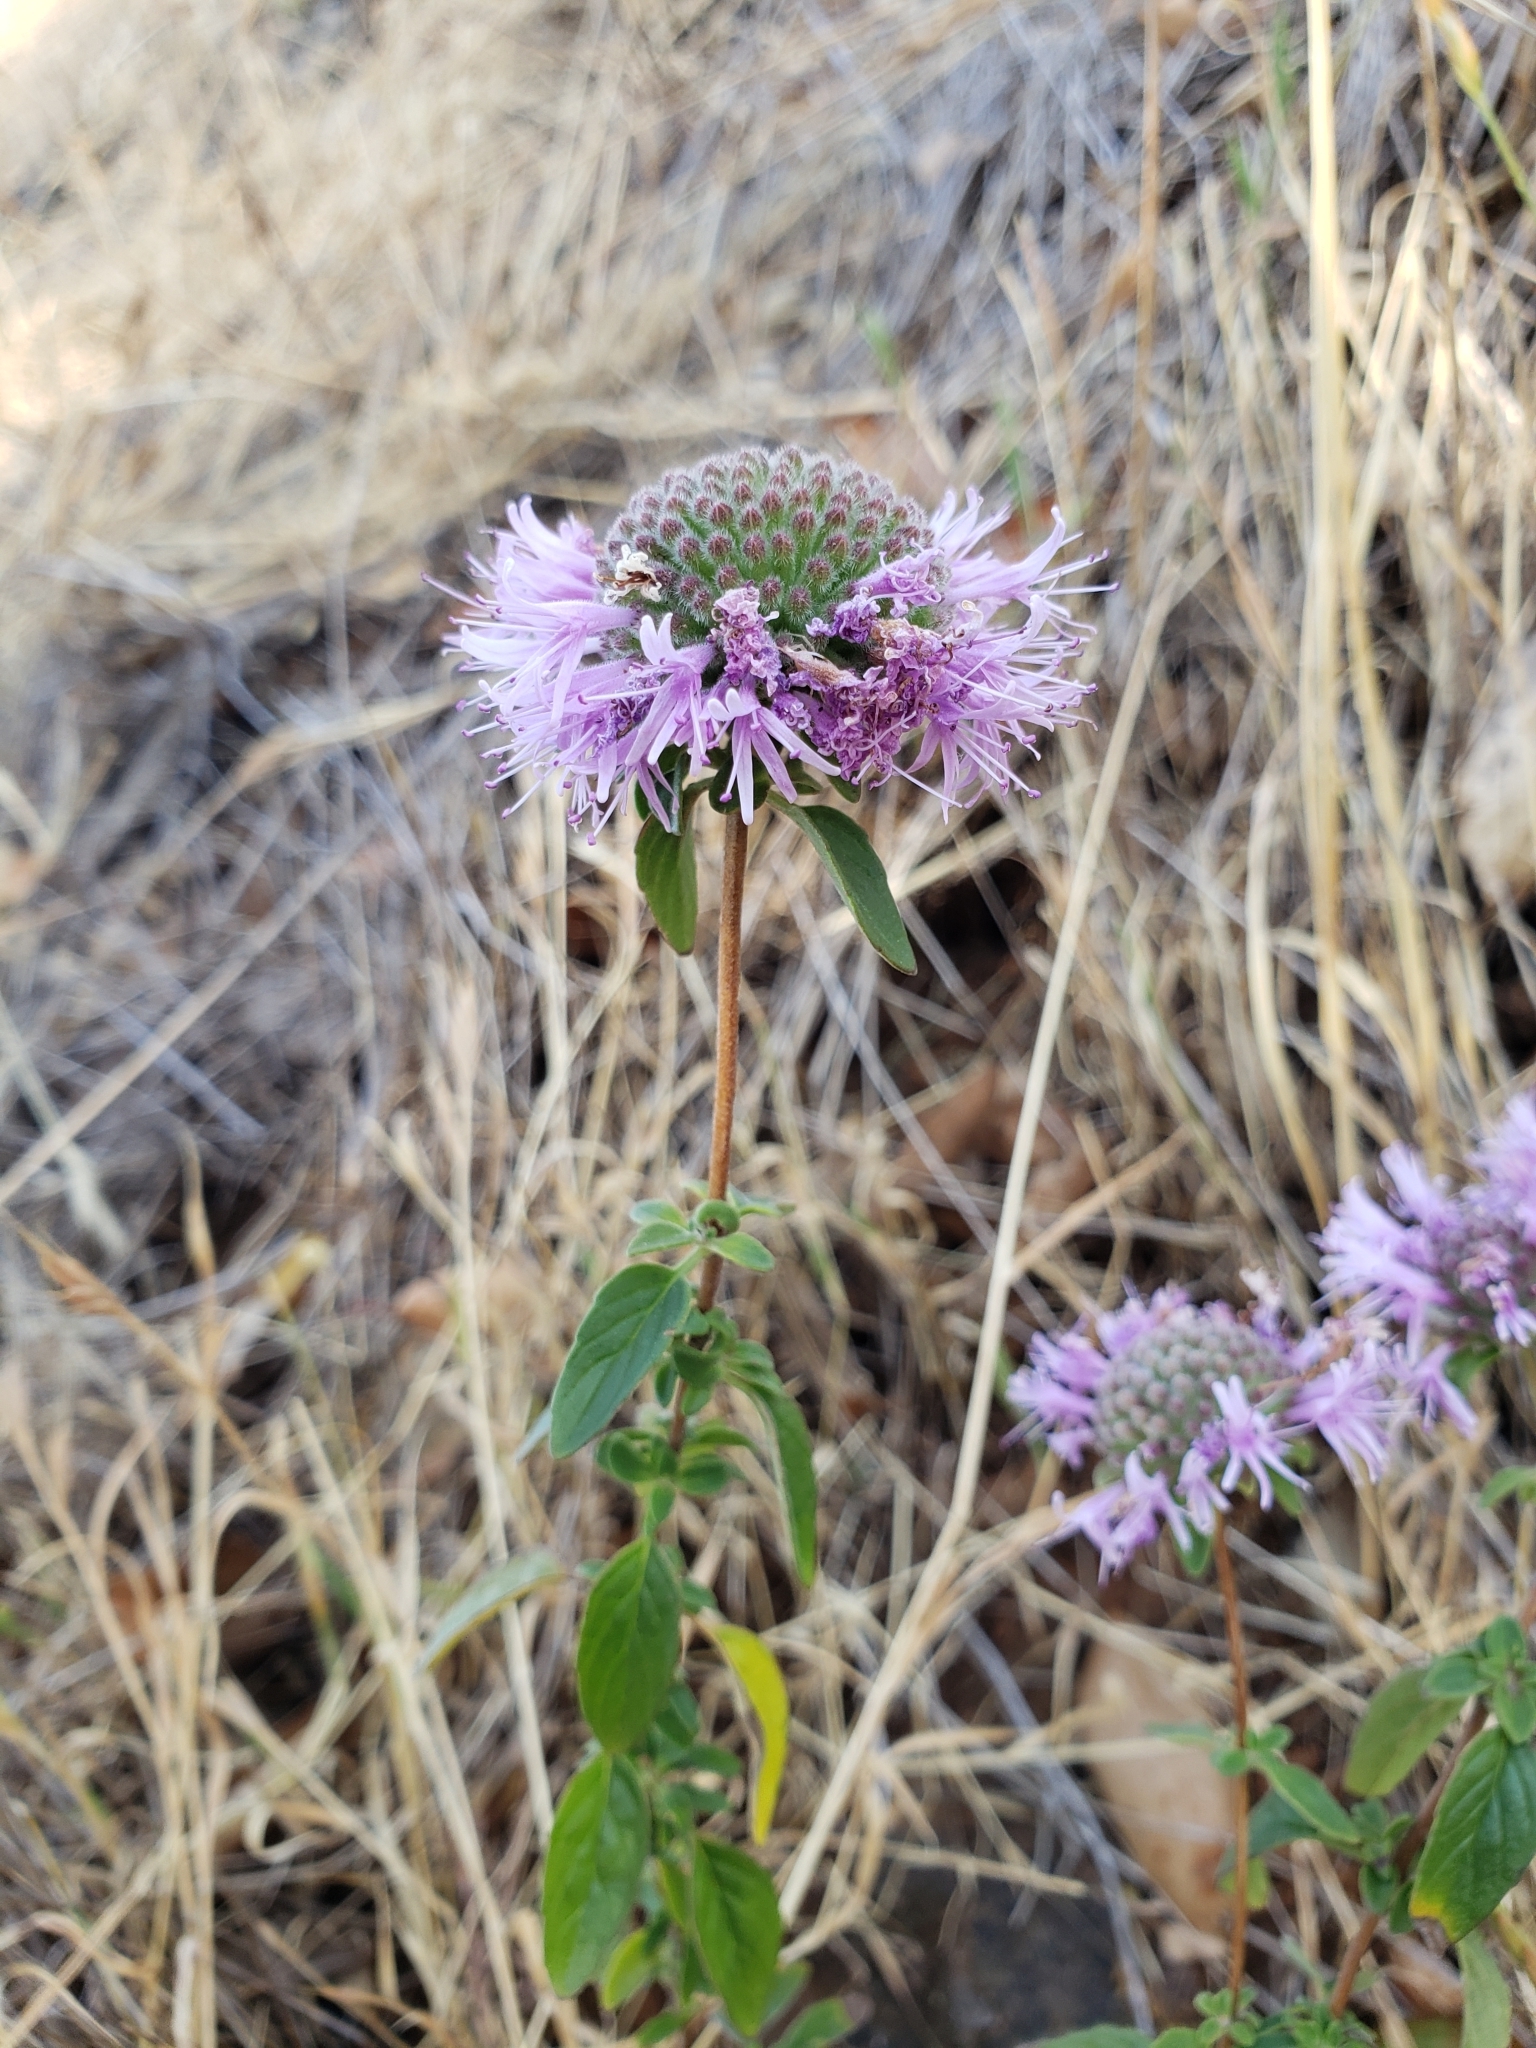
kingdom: Plantae
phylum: Tracheophyta
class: Magnoliopsida
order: Lamiales
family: Lamiaceae
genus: Monardella
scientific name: Monardella odoratissima
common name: Pacific monardella
